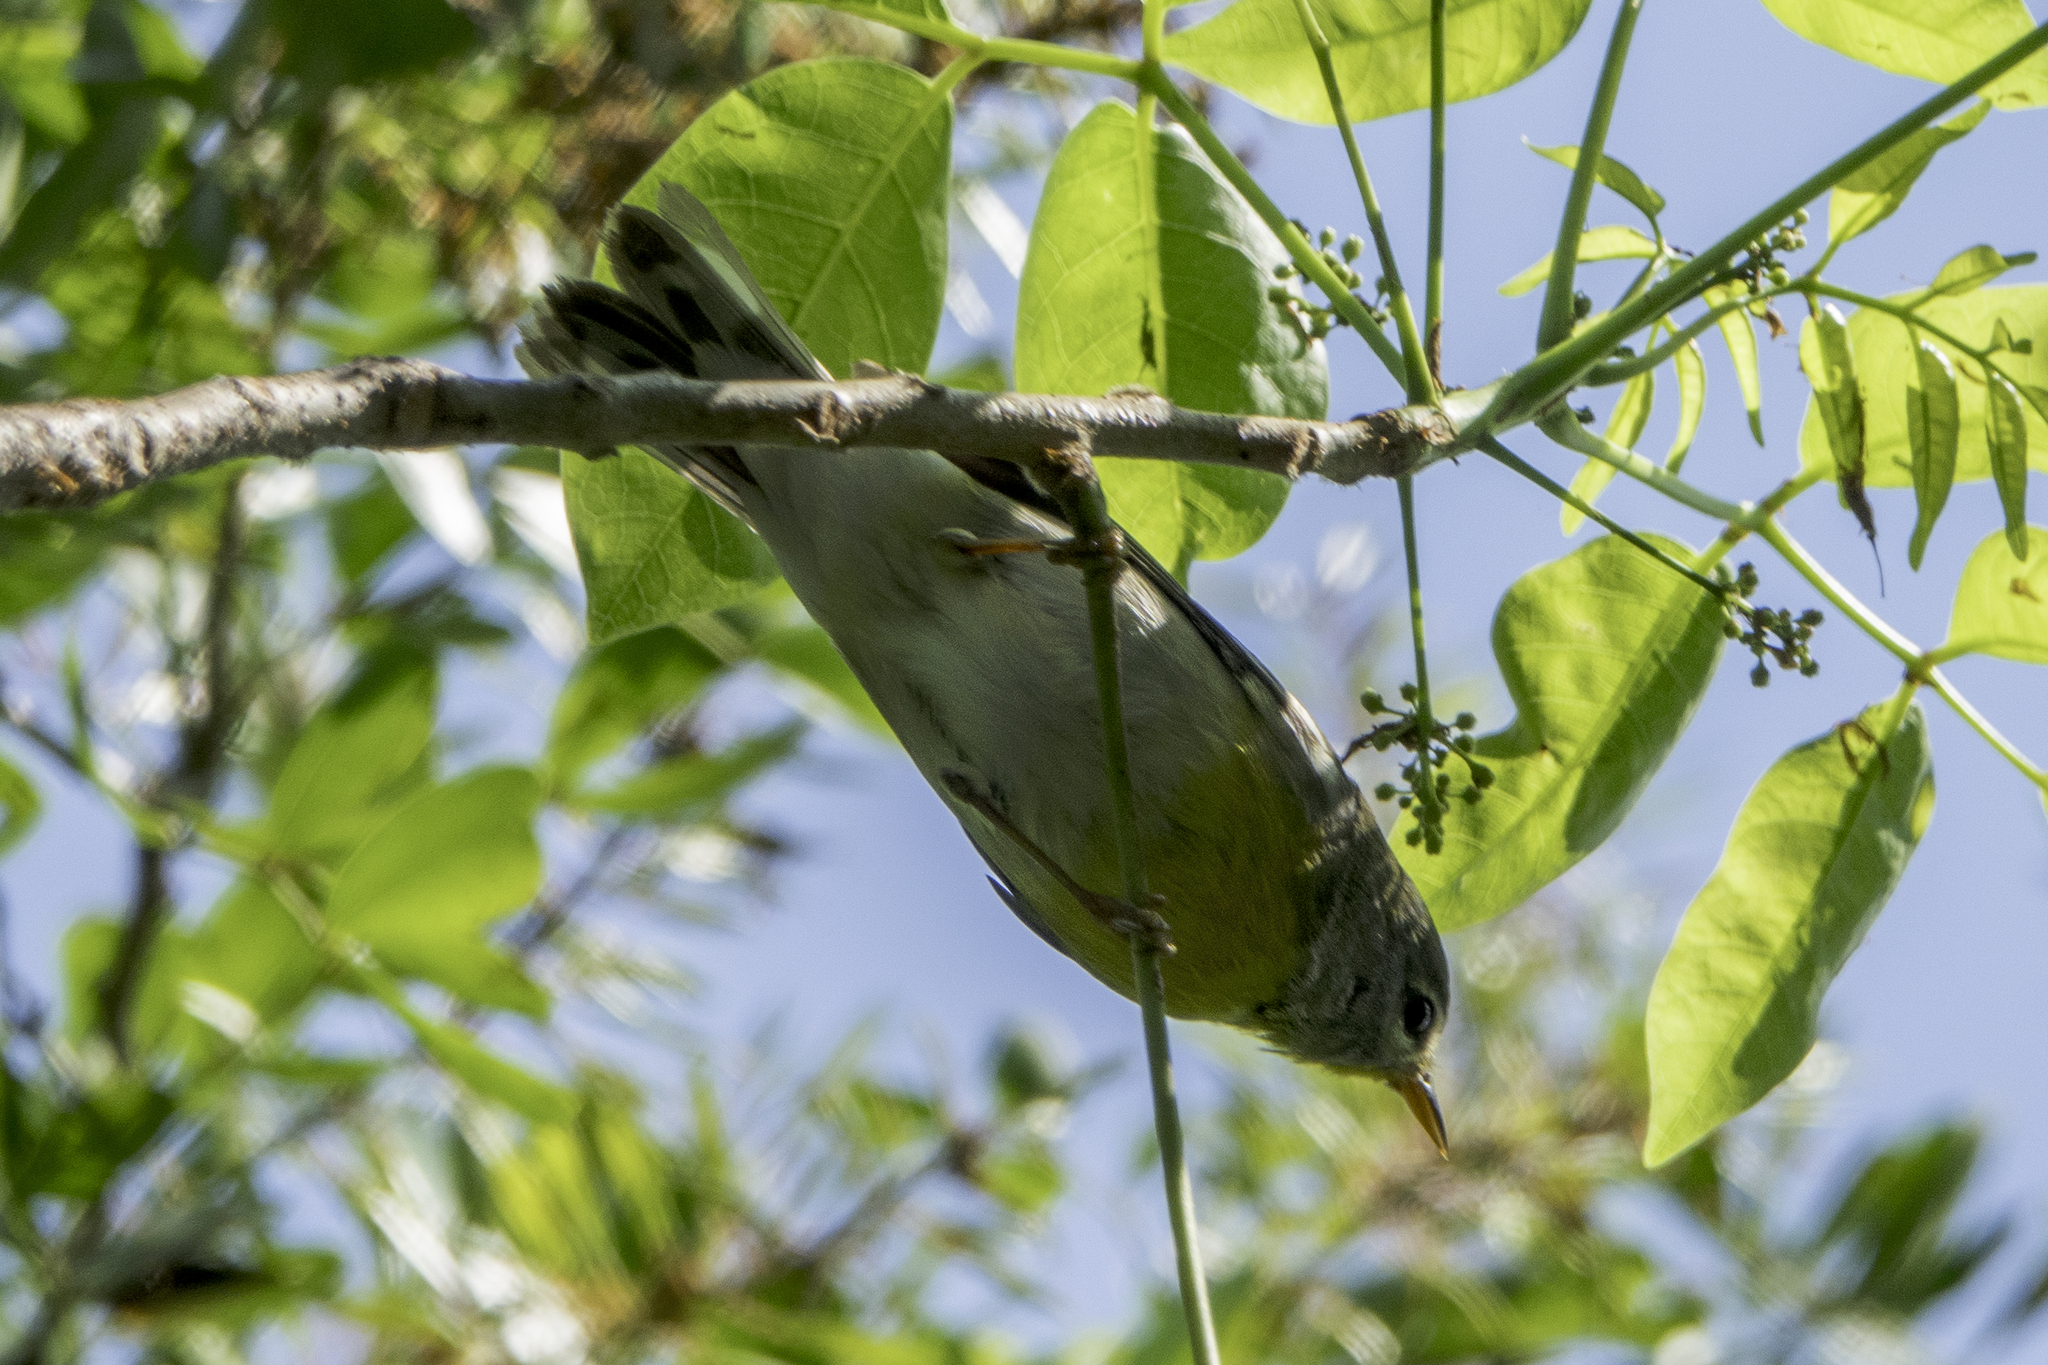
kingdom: Animalia
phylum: Chordata
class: Aves
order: Passeriformes
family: Parulidae
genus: Setophaga
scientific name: Setophaga americana
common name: Northern parula
